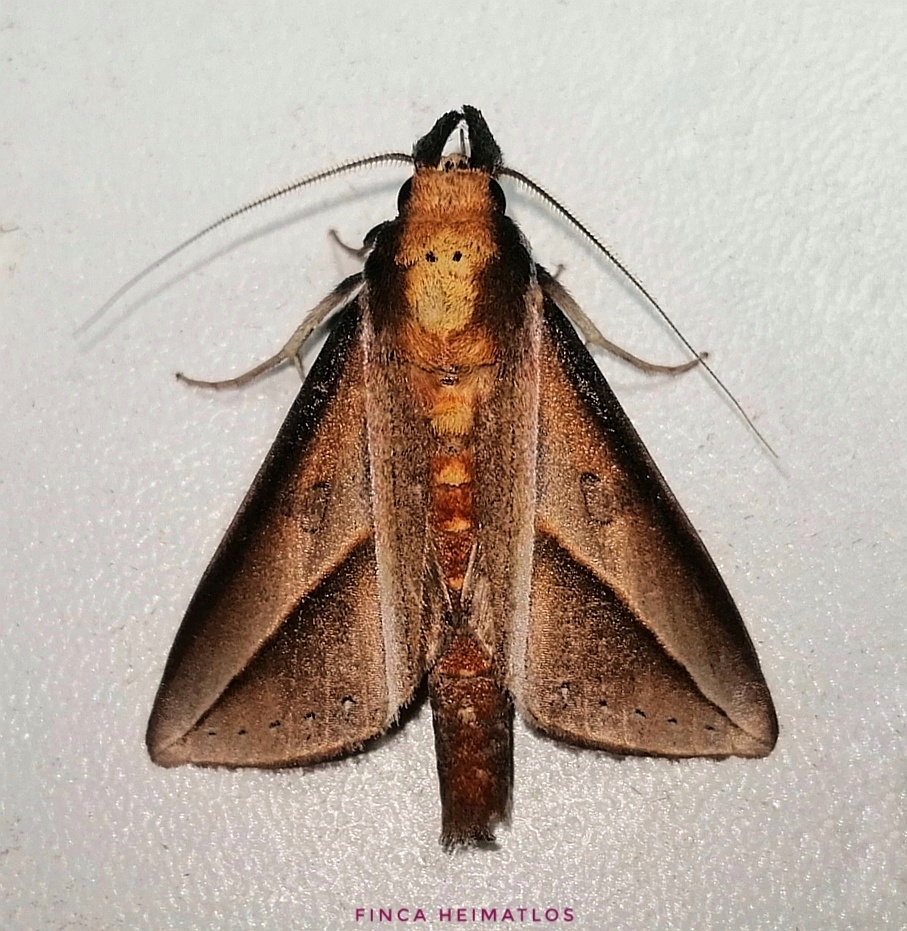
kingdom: Animalia
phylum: Arthropoda
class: Insecta
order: Lepidoptera
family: Notodontidae
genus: Strophocerus
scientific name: Strophocerus sericea
